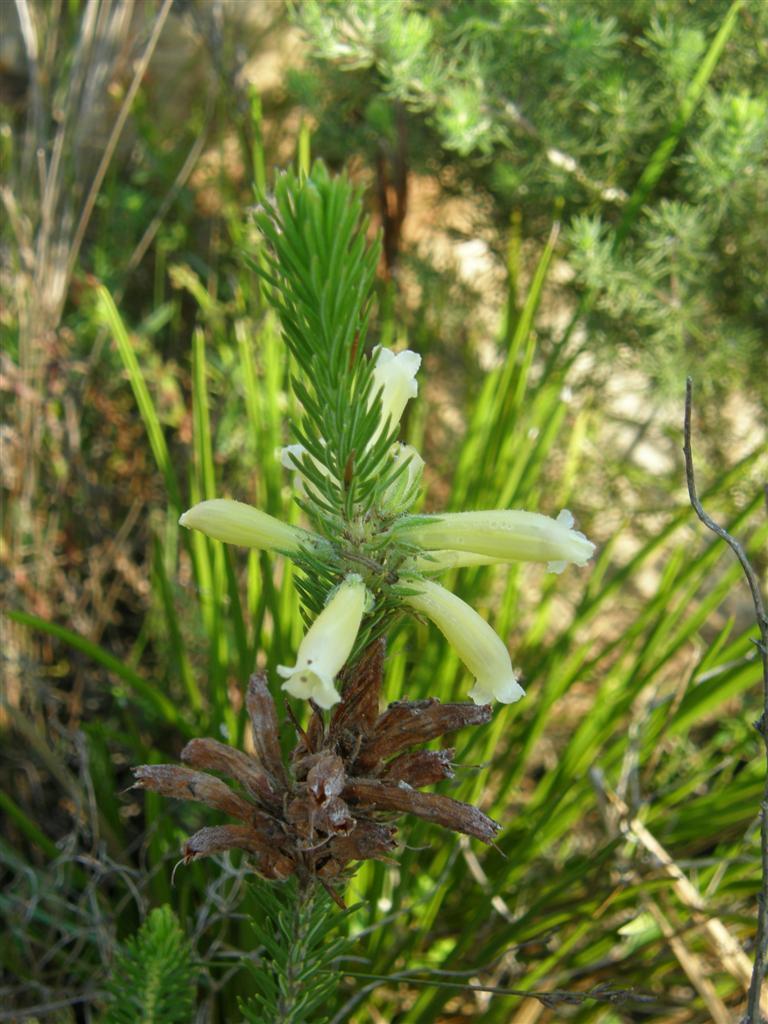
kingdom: Plantae
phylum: Tracheophyta
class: Magnoliopsida
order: Ericales
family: Ericaceae
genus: Erica
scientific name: Erica viscaria
